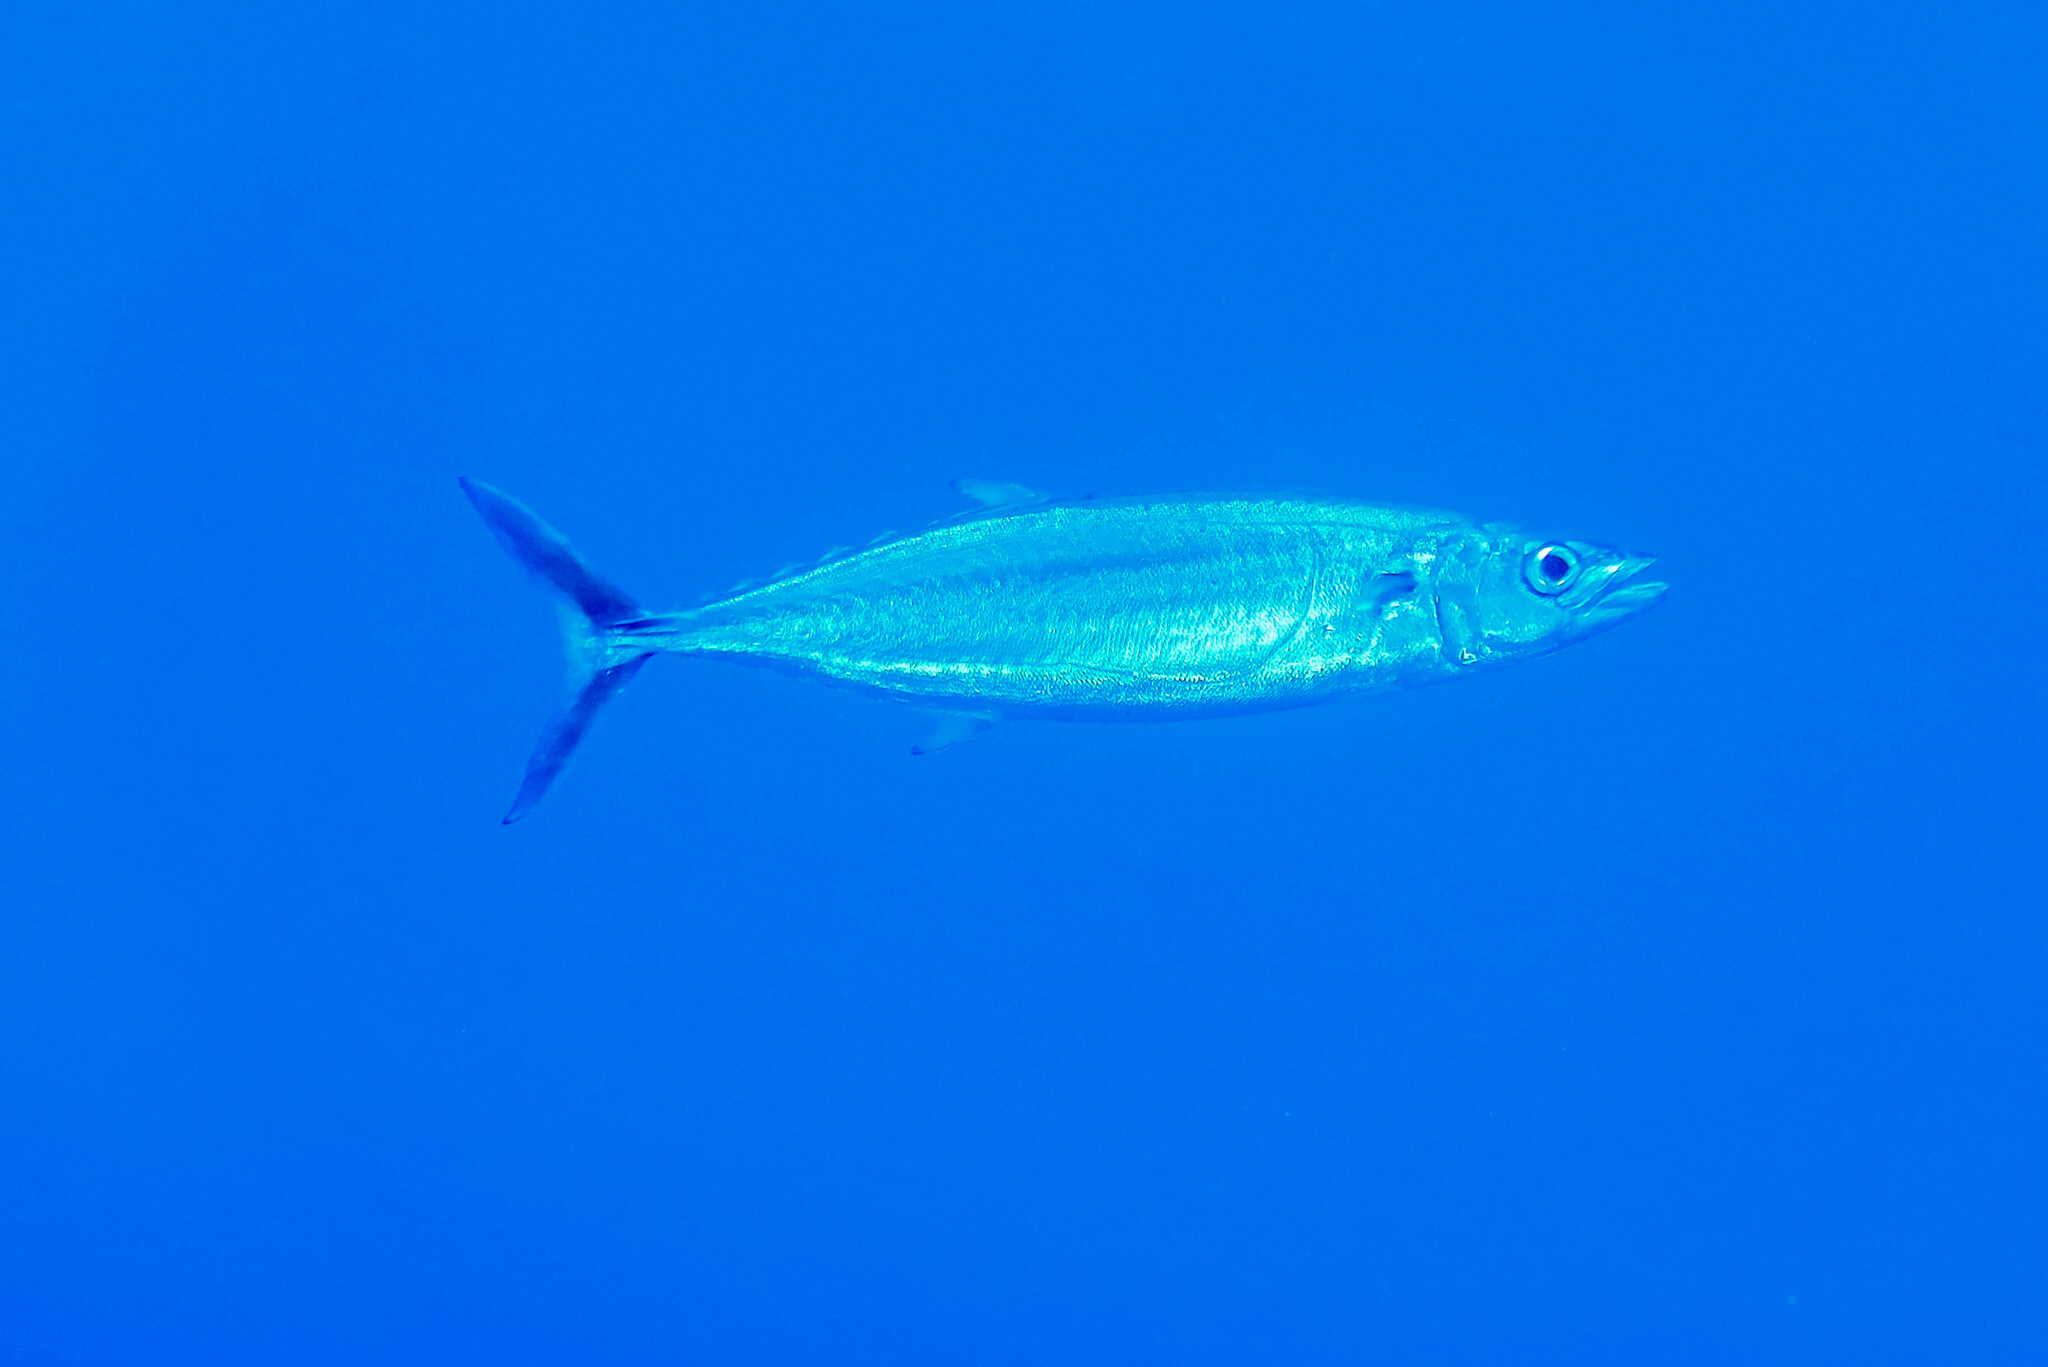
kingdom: Animalia
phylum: Chordata
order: Perciformes
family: Scombridae
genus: Grammatorcynus
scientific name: Grammatorcynus bilineatus
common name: Double-lined mackerel
